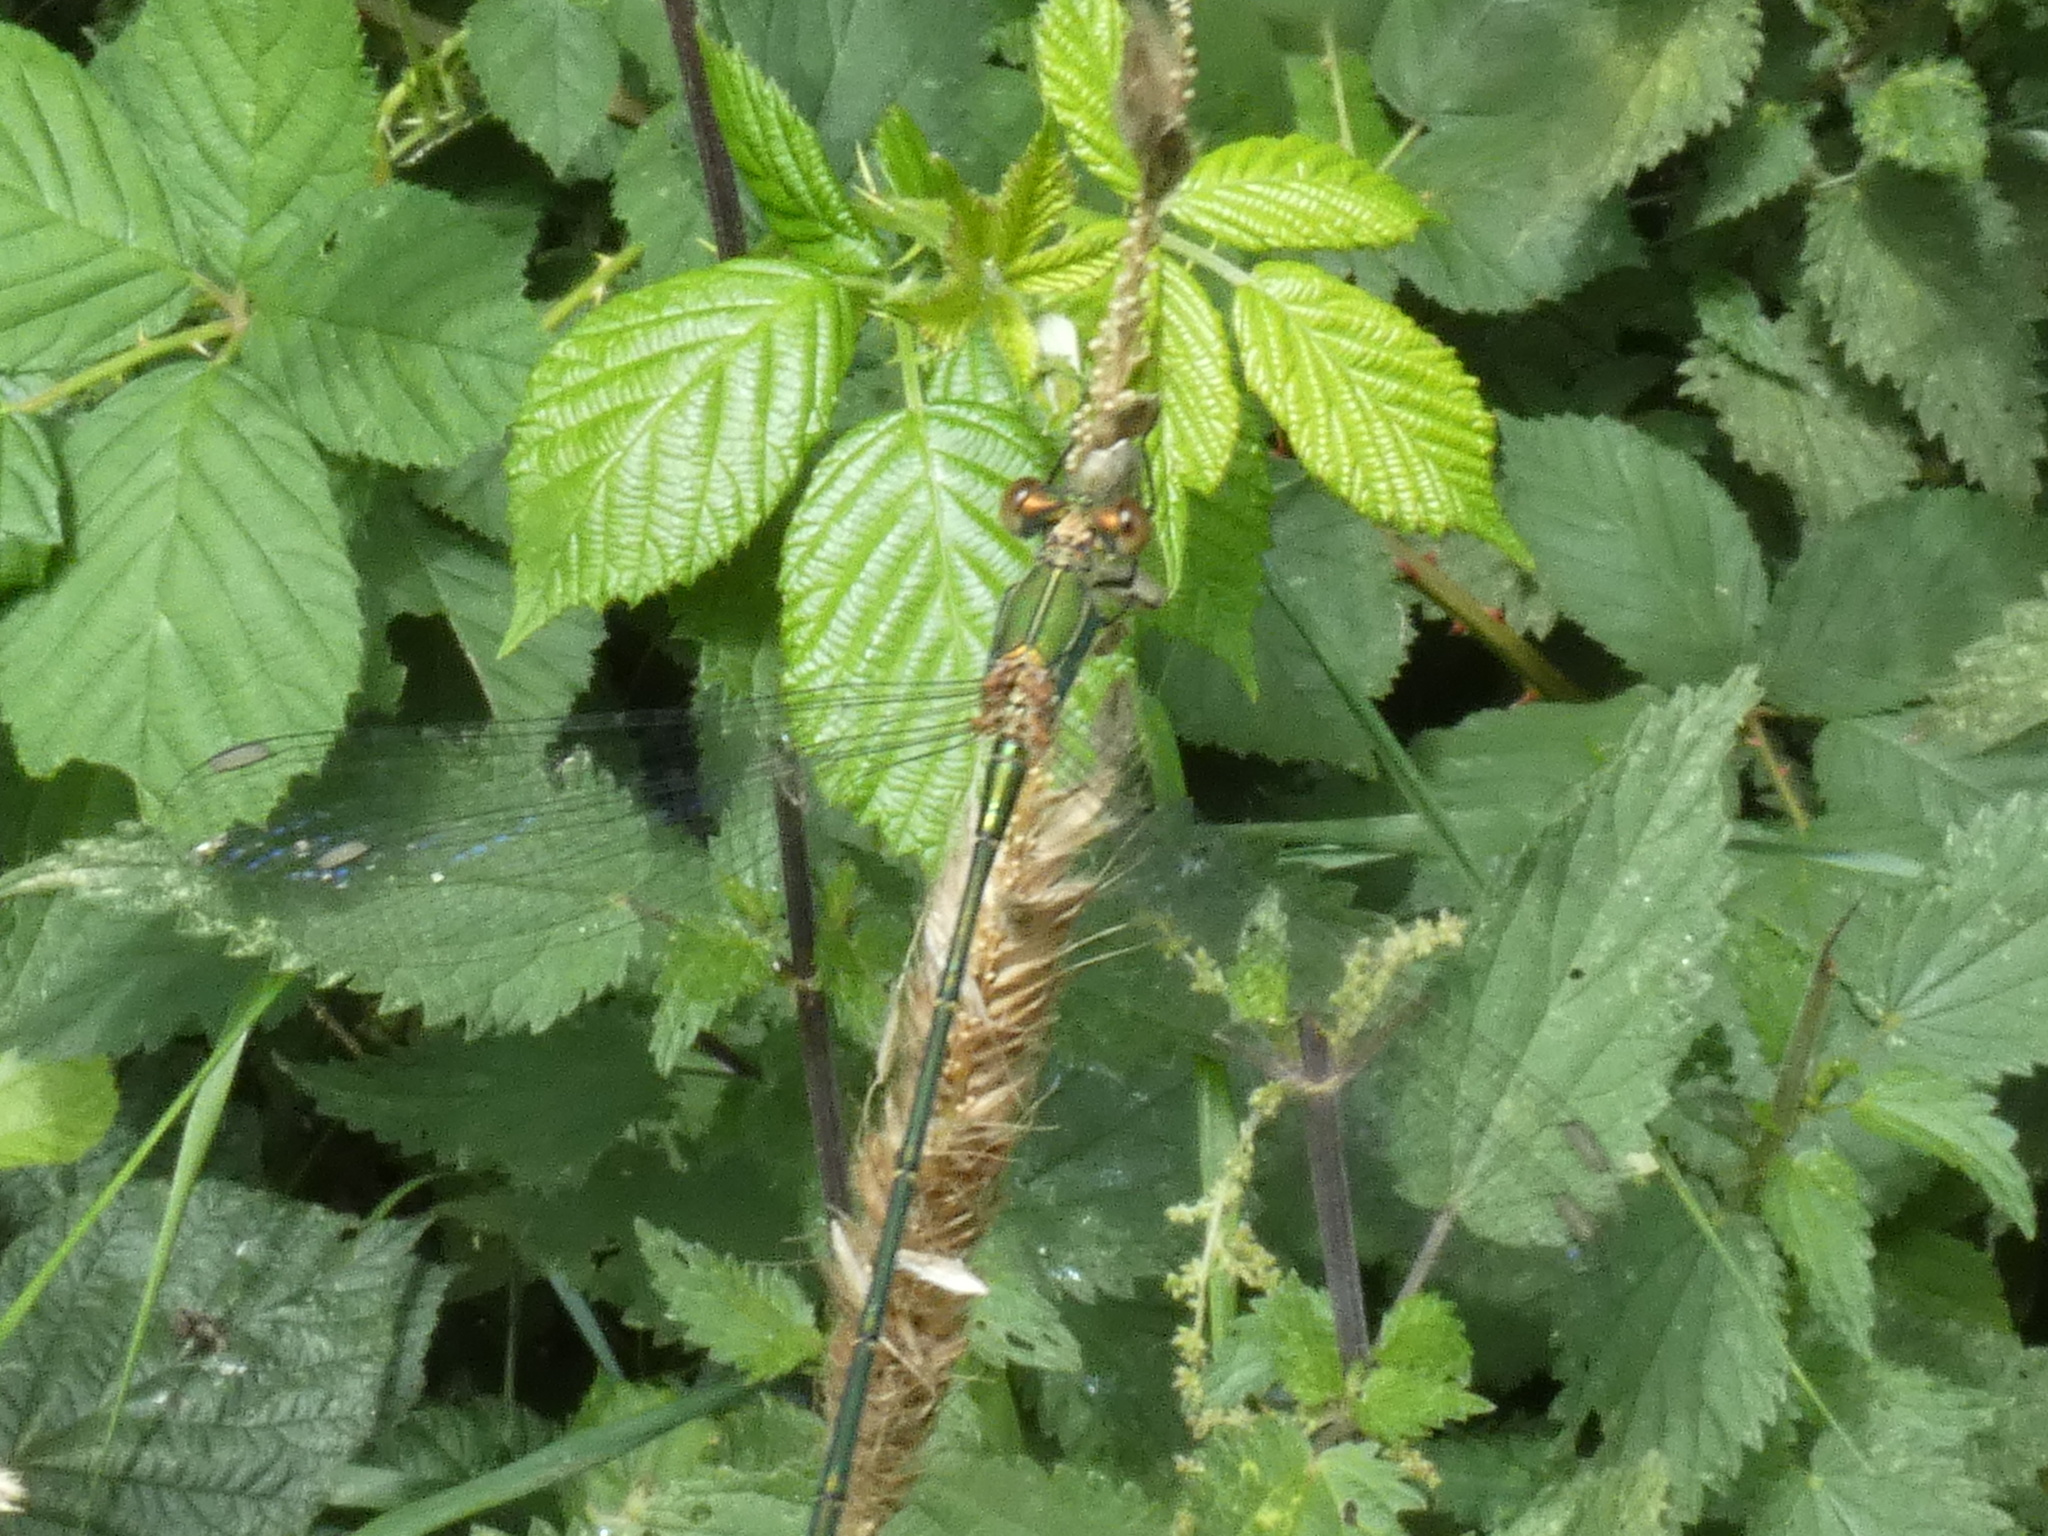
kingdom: Animalia
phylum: Arthropoda
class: Insecta
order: Odonata
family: Lestidae
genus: Chalcolestes
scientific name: Chalcolestes viridis
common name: Green emerald damselfly
